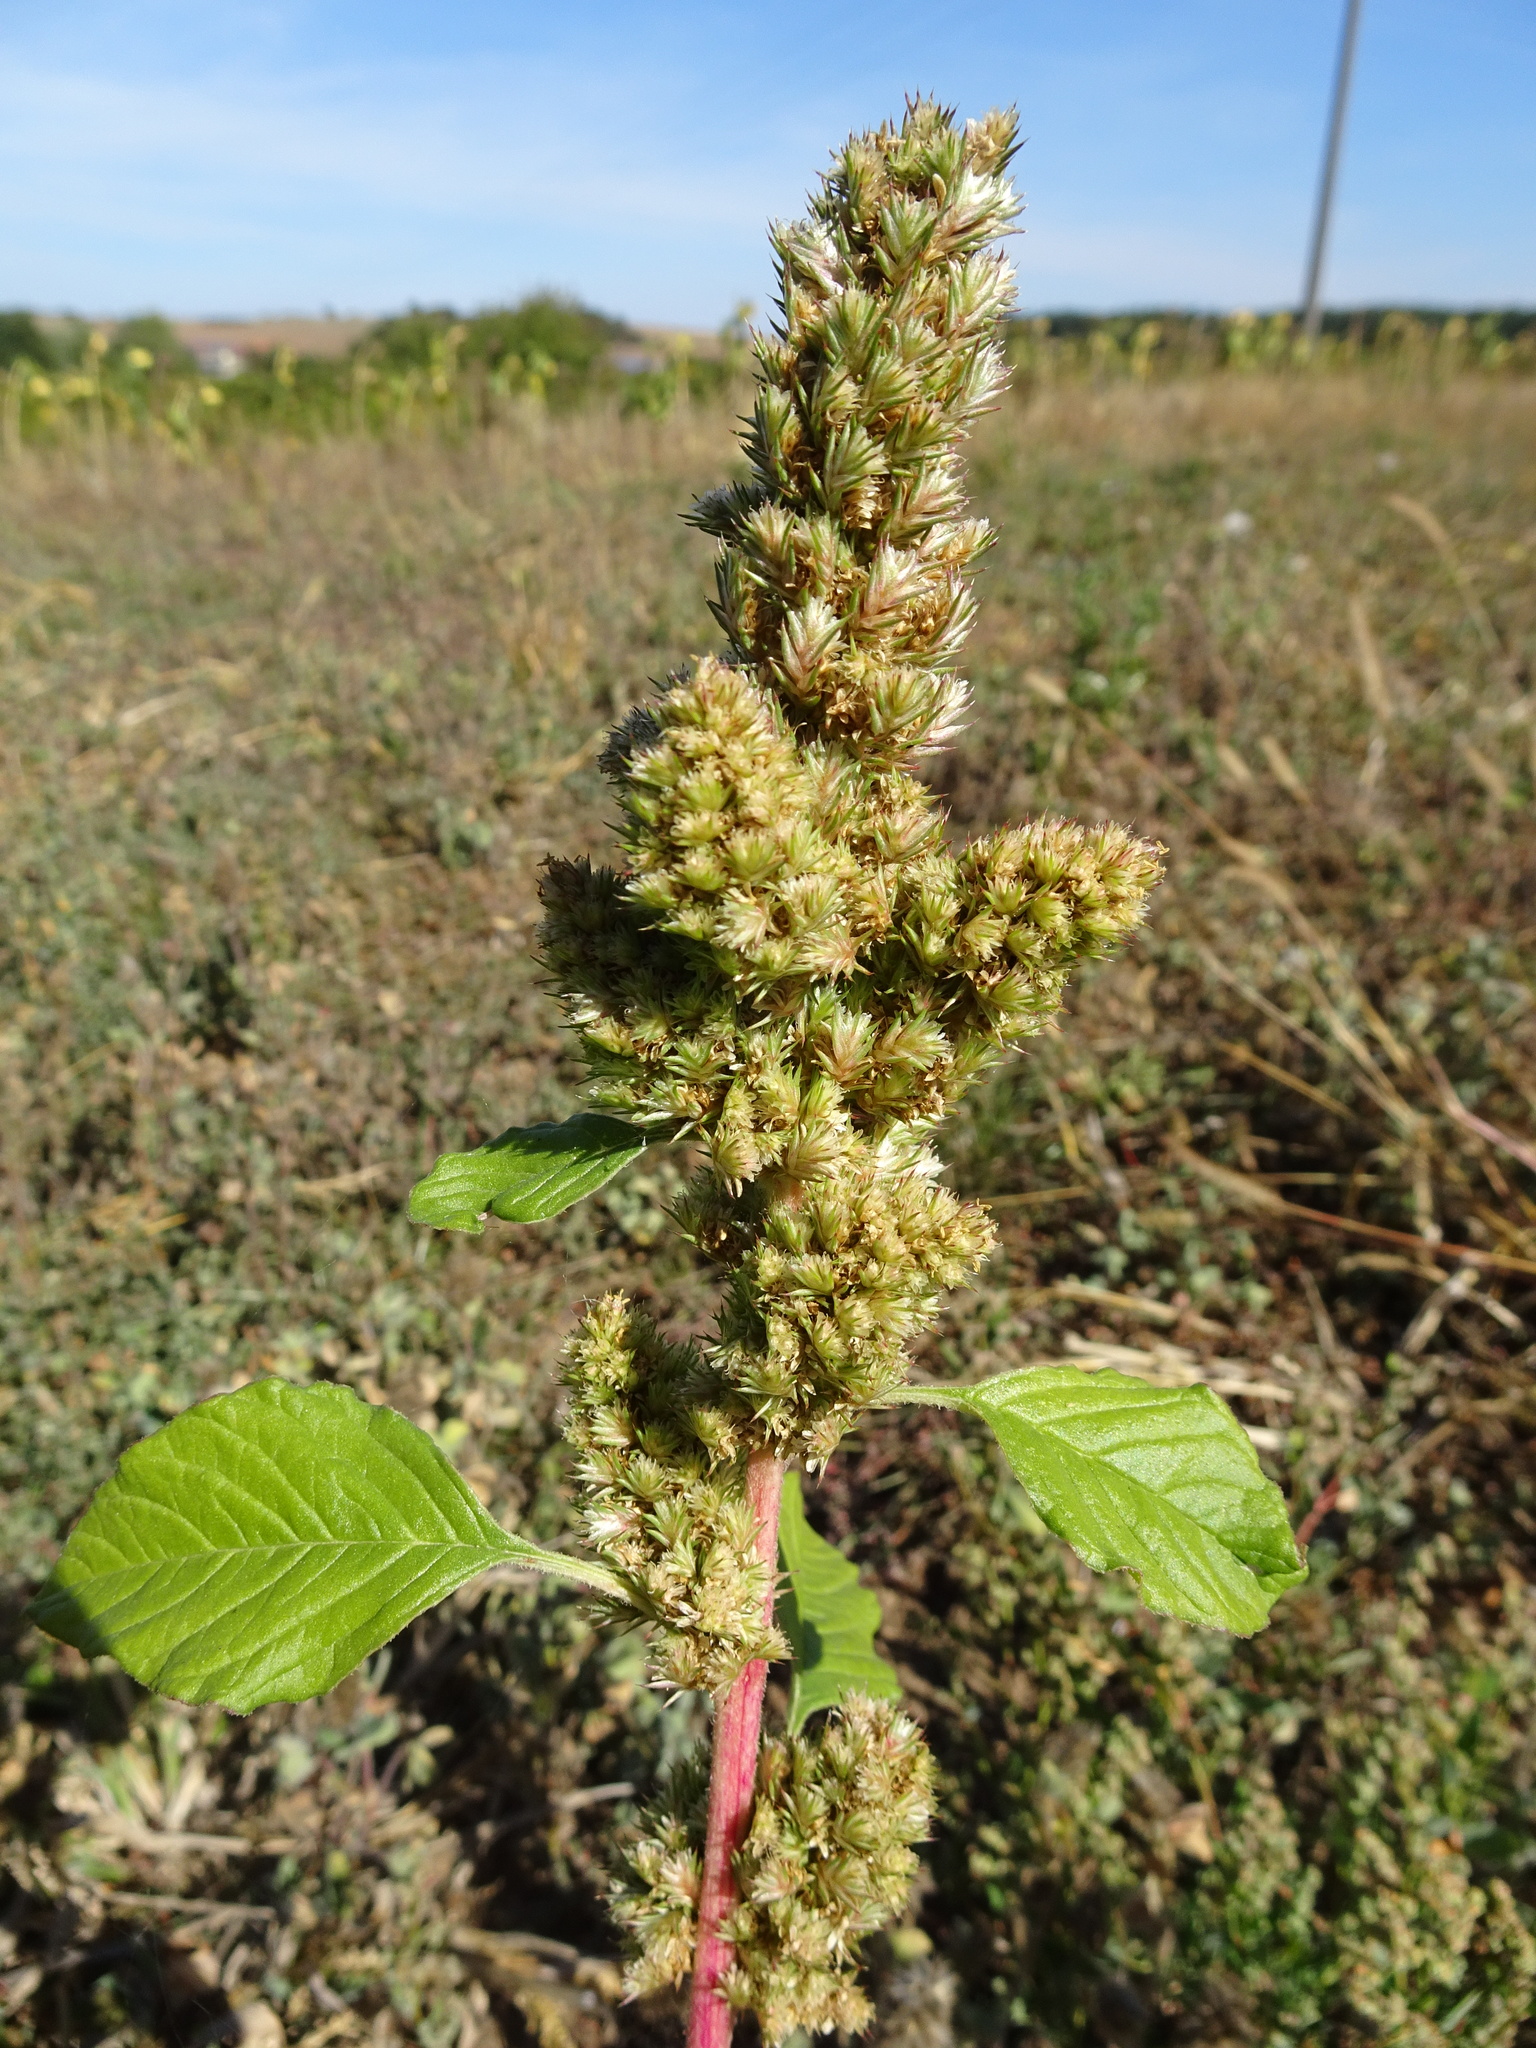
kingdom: Plantae
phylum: Tracheophyta
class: Magnoliopsida
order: Caryophyllales
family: Amaranthaceae
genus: Amaranthus
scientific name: Amaranthus retroflexus
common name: Redroot amaranth
